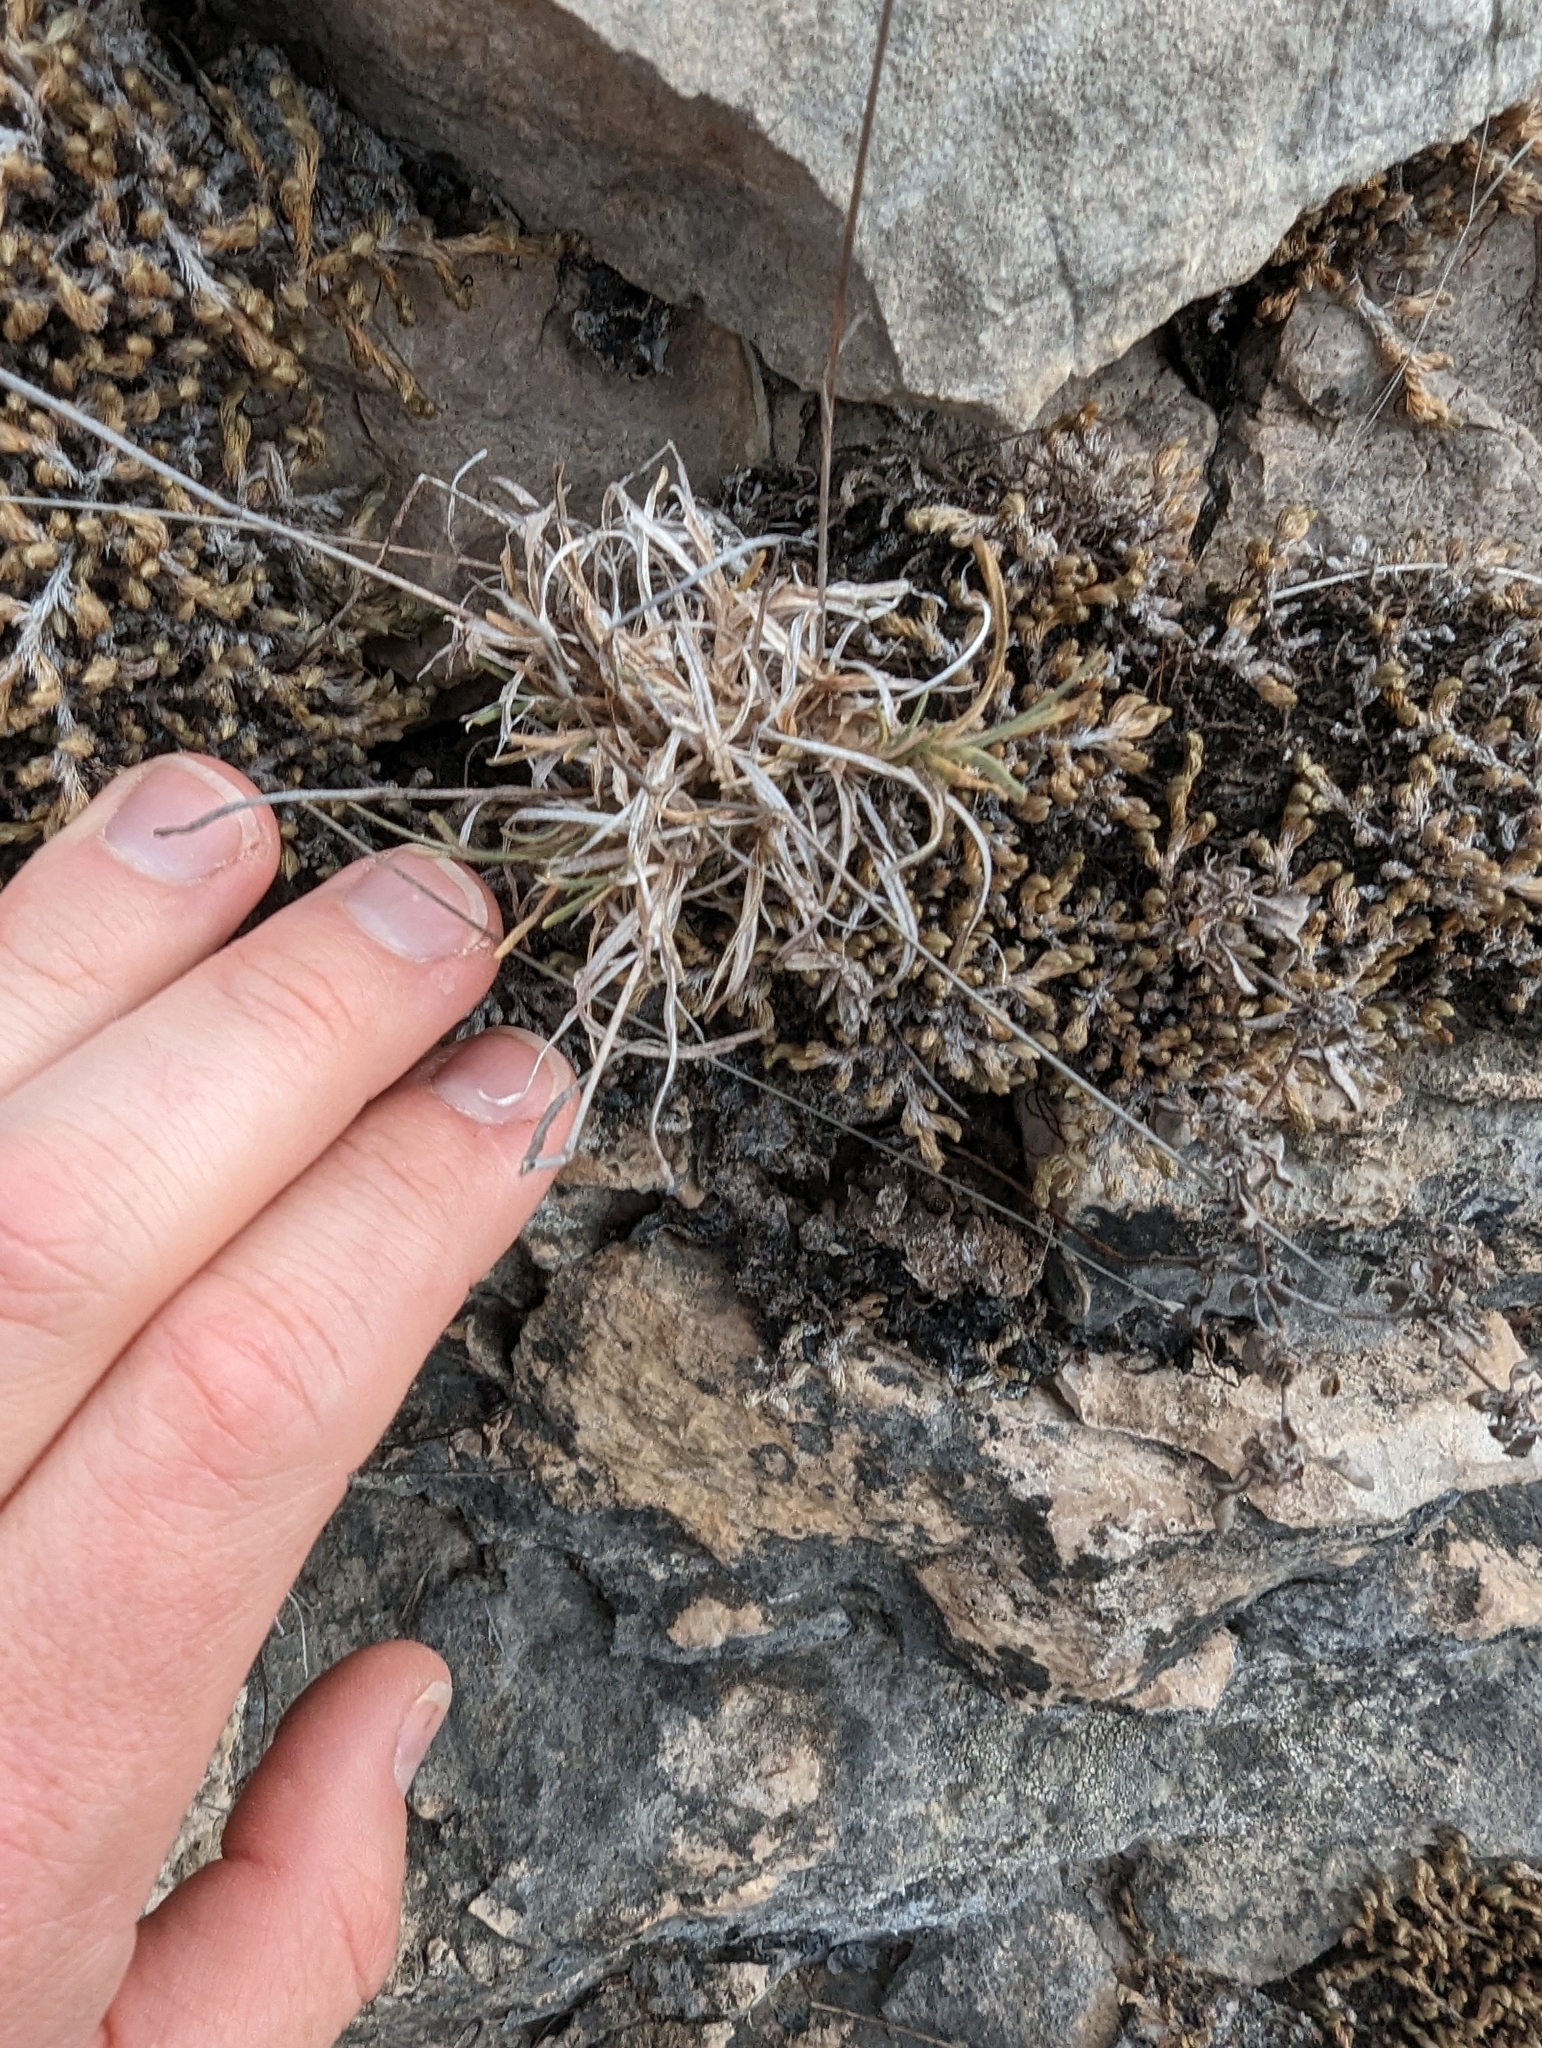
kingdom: Plantae
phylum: Tracheophyta
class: Liliopsida
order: Poales
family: Poaceae
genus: Erioneuron
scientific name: Erioneuron pilosum
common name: Hairy woolly grass
